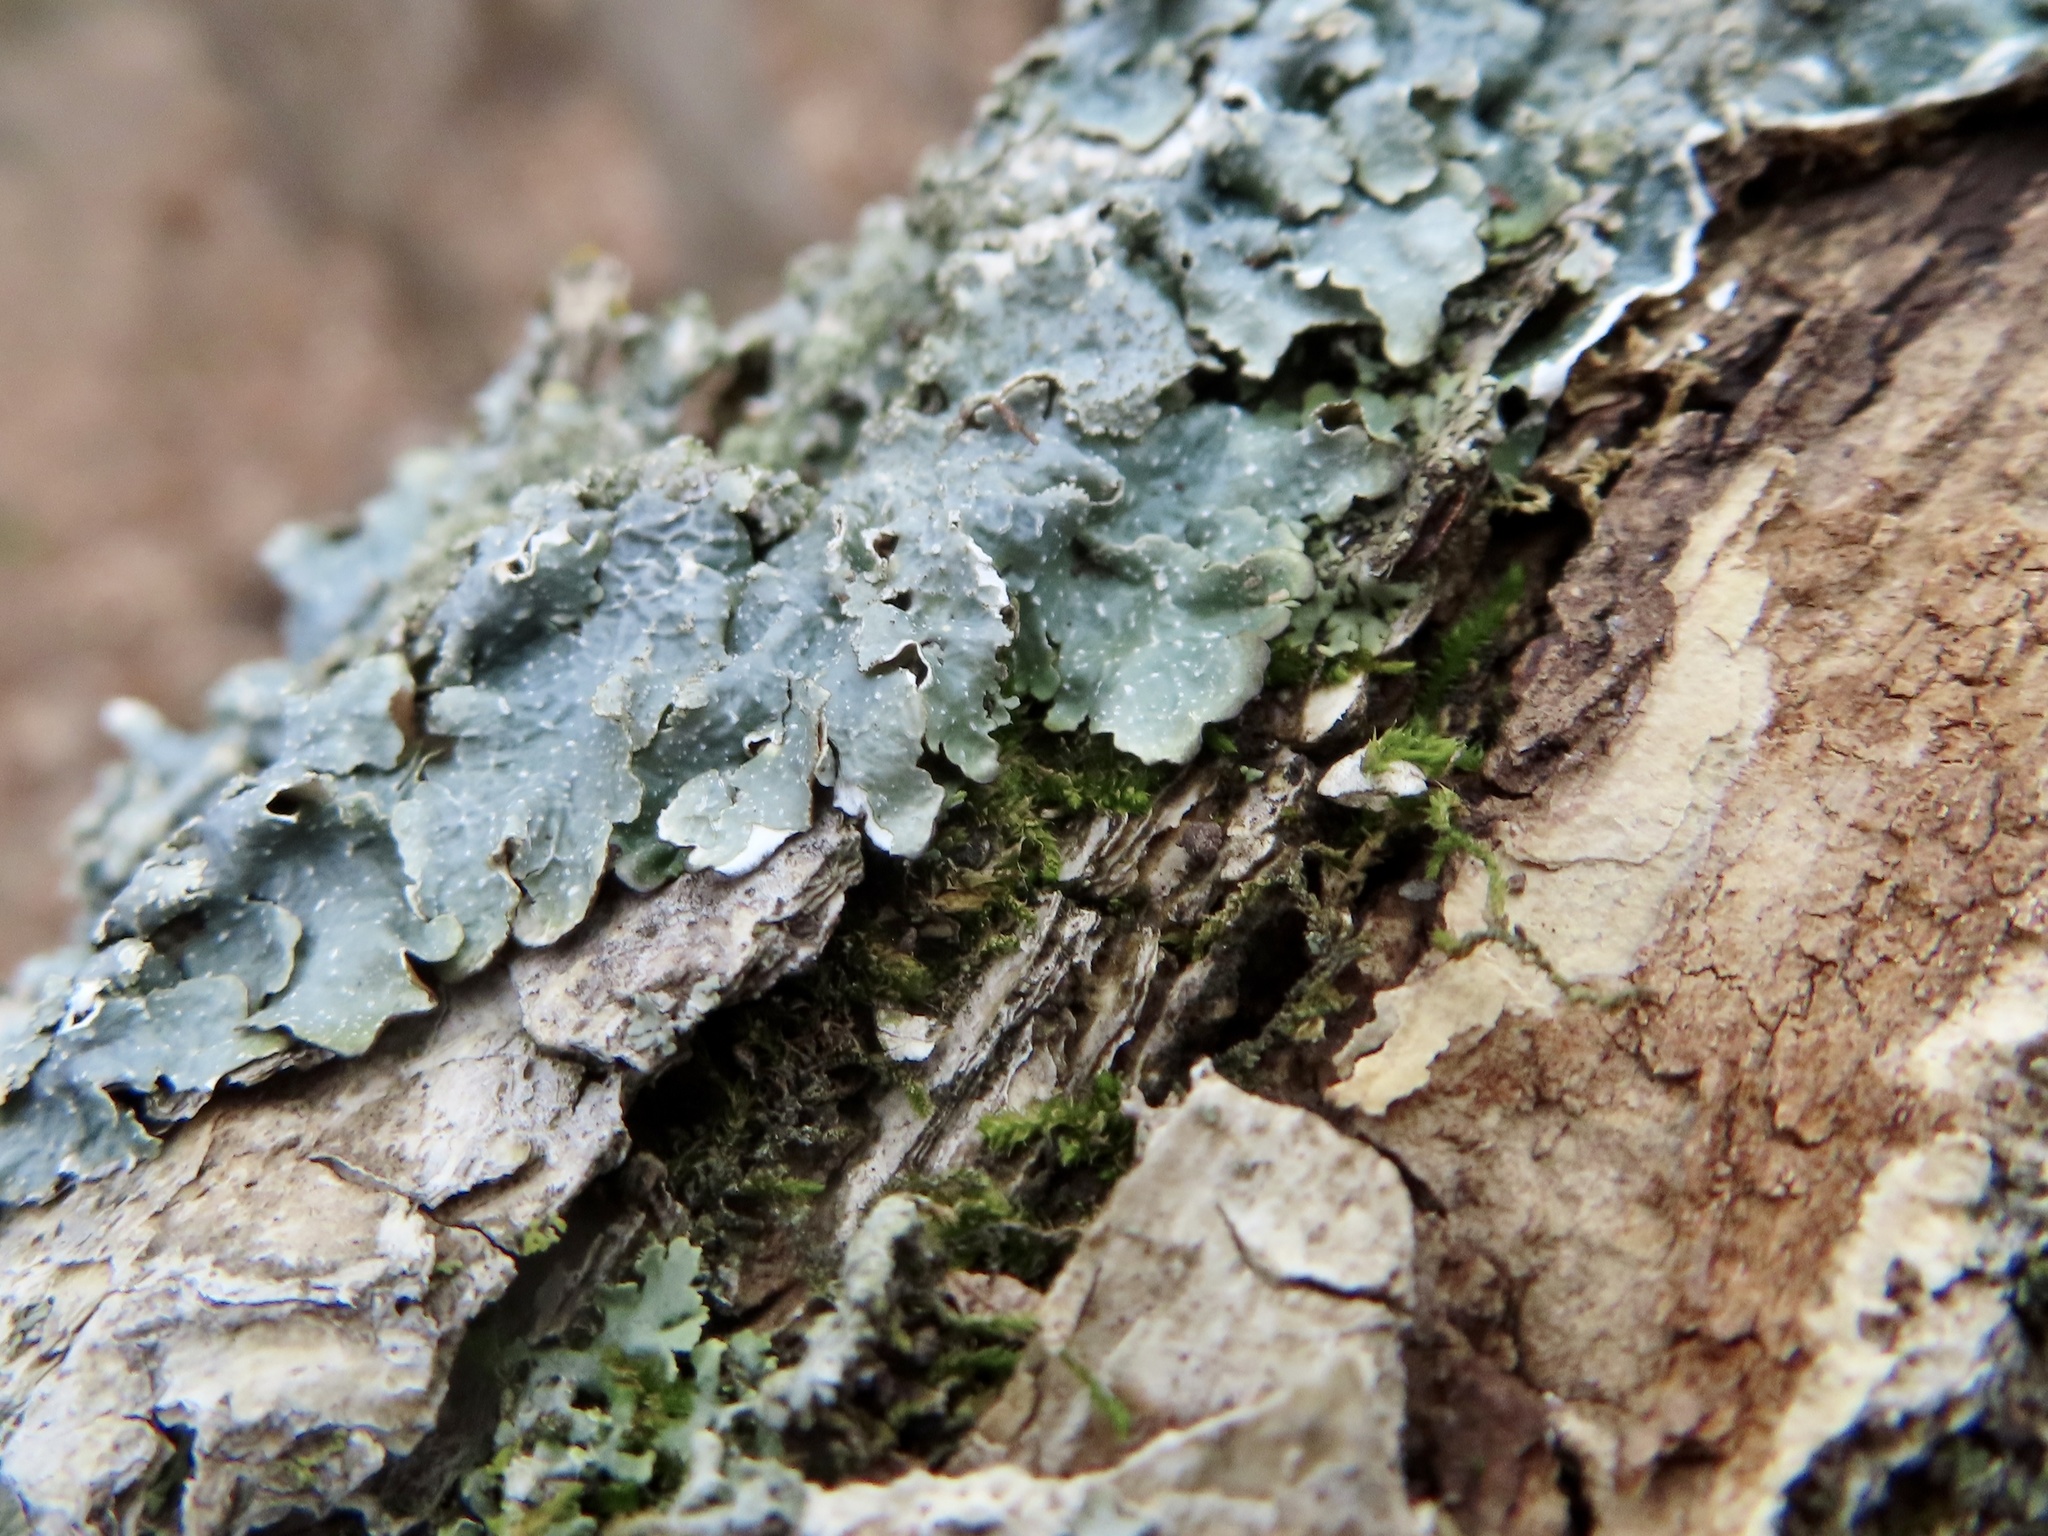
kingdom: Fungi
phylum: Ascomycota
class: Lecanoromycetes
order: Lecanorales
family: Parmeliaceae
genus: Punctelia
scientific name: Punctelia rudecta
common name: Rough speckled shield lichen
